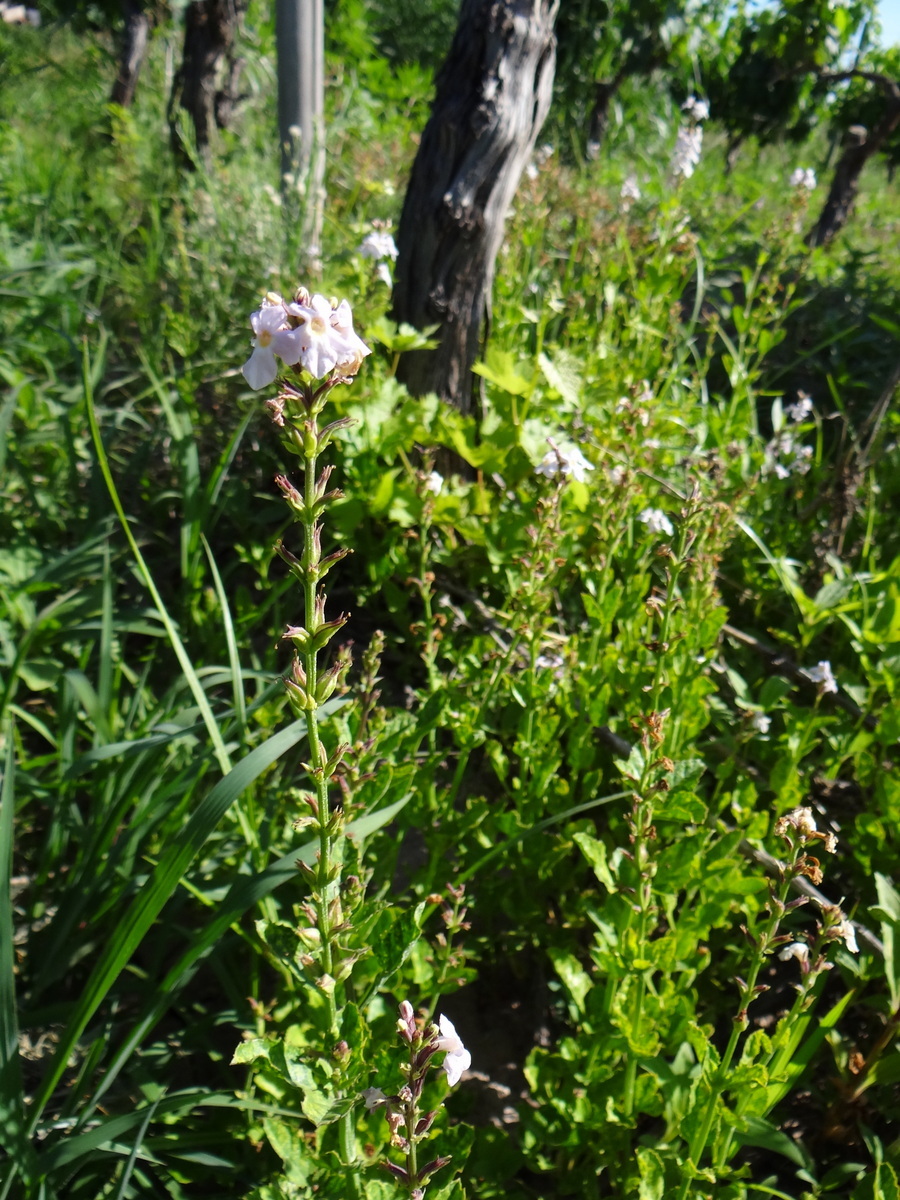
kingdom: Plantae
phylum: Tracheophyta
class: Magnoliopsida
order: Lamiales
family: Verbenaceae
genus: Pitraea
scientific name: Pitraea cuneato-ovata
